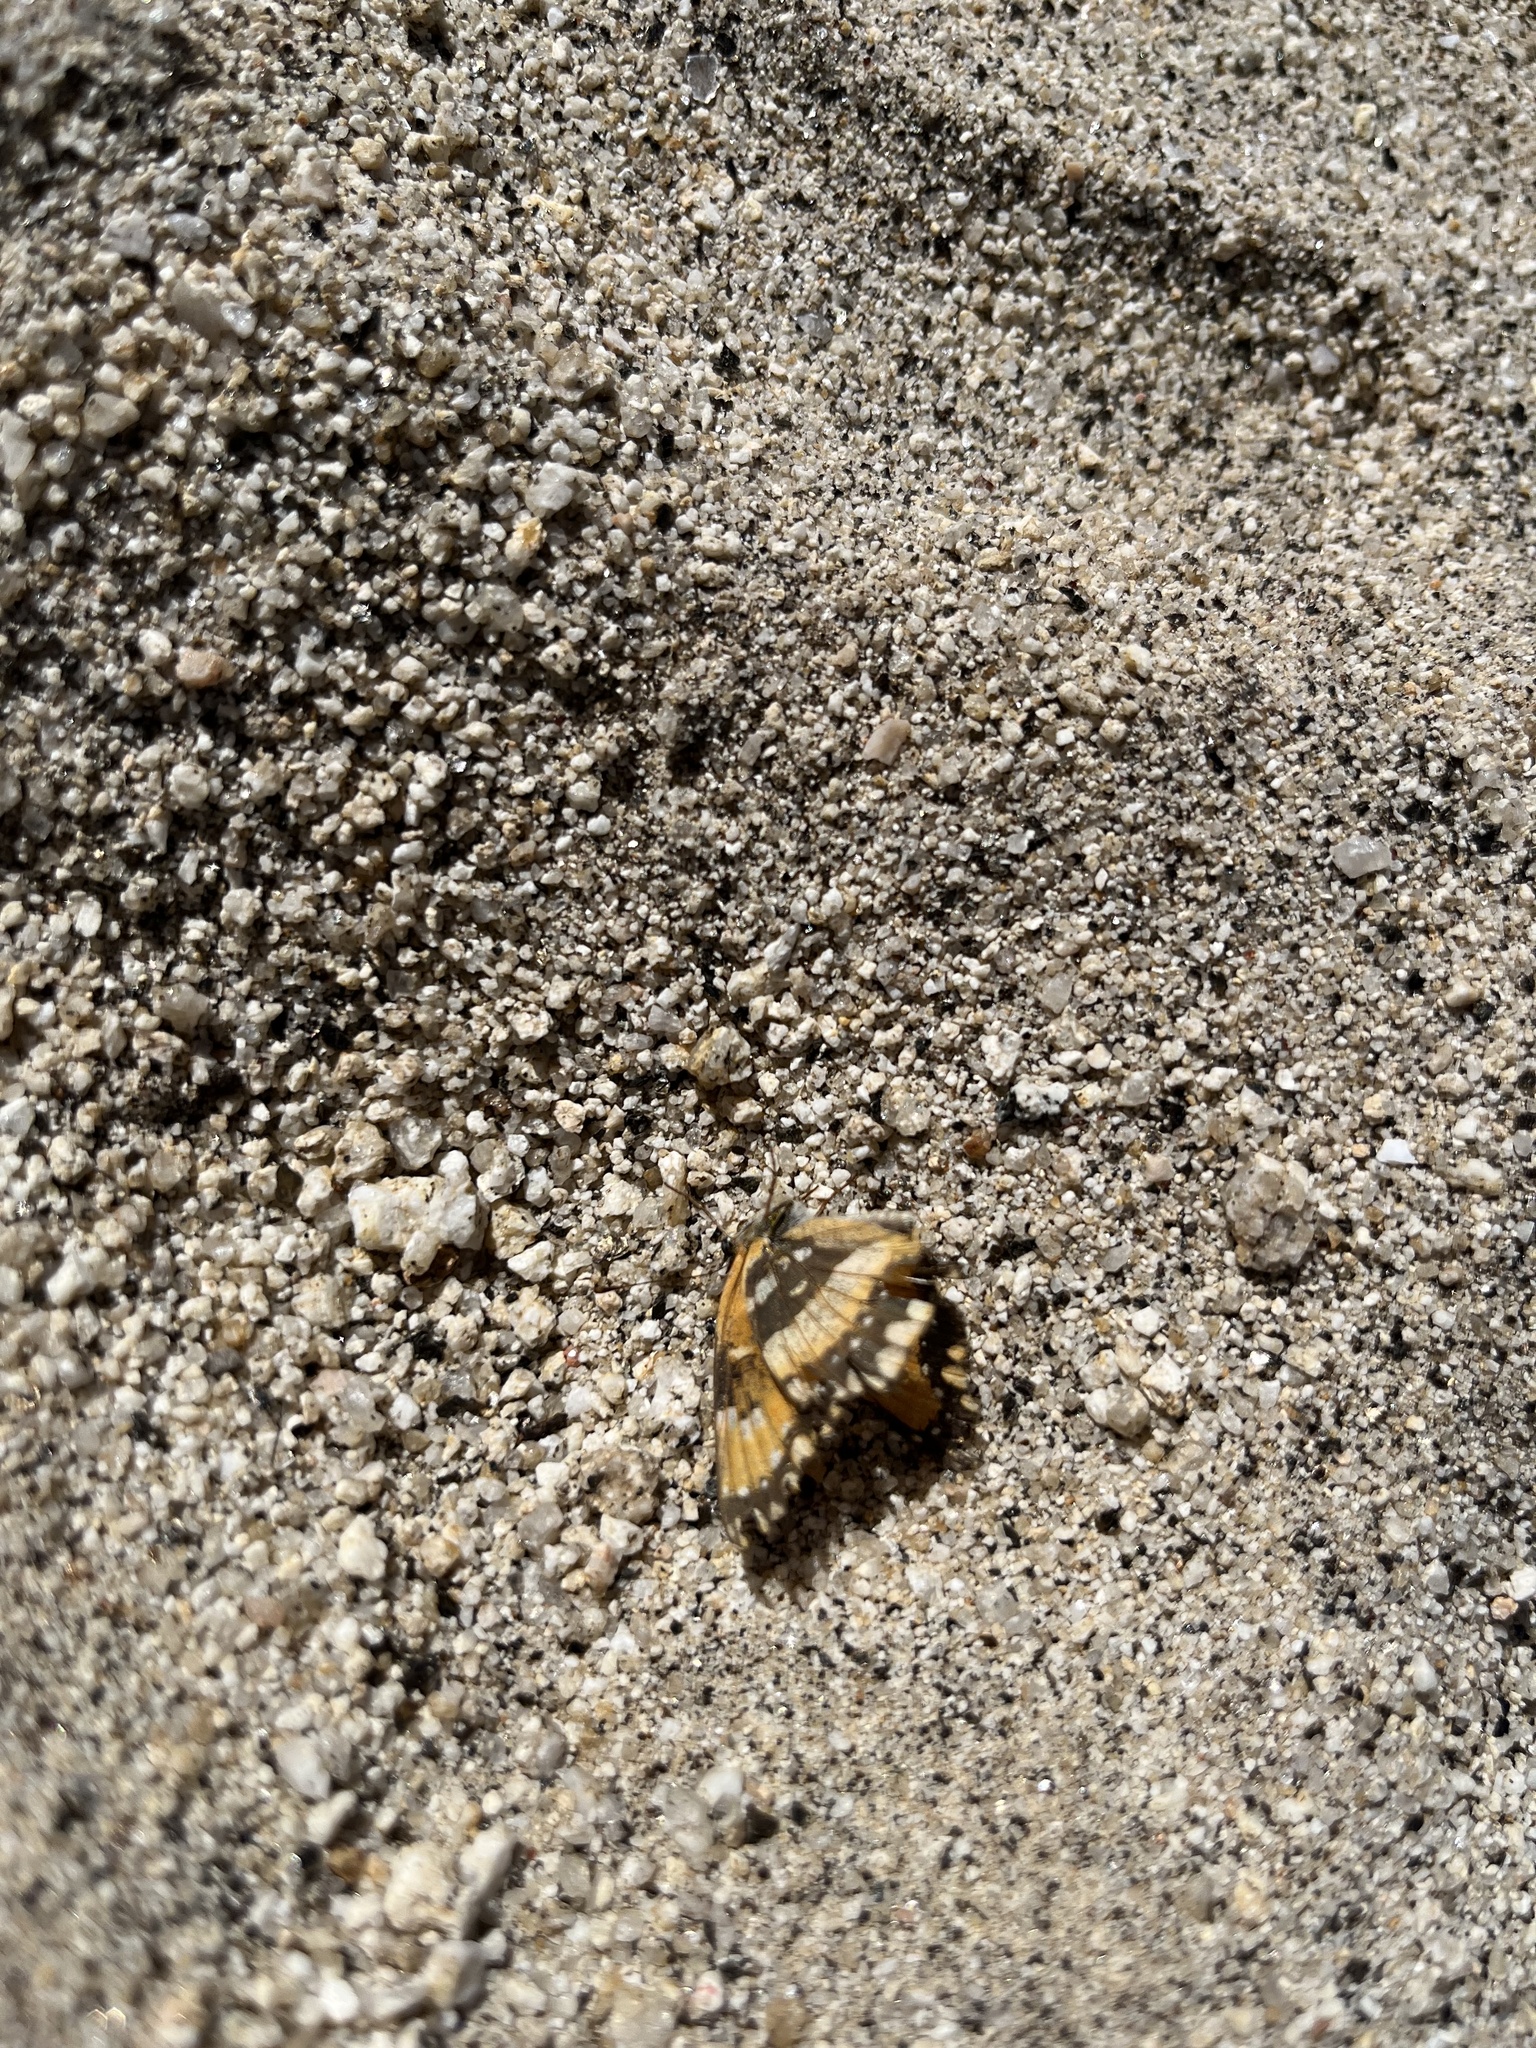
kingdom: Animalia
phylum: Arthropoda
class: Insecta
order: Lepidoptera
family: Nymphalidae
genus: Chlosyne
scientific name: Chlosyne californica
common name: California patch
